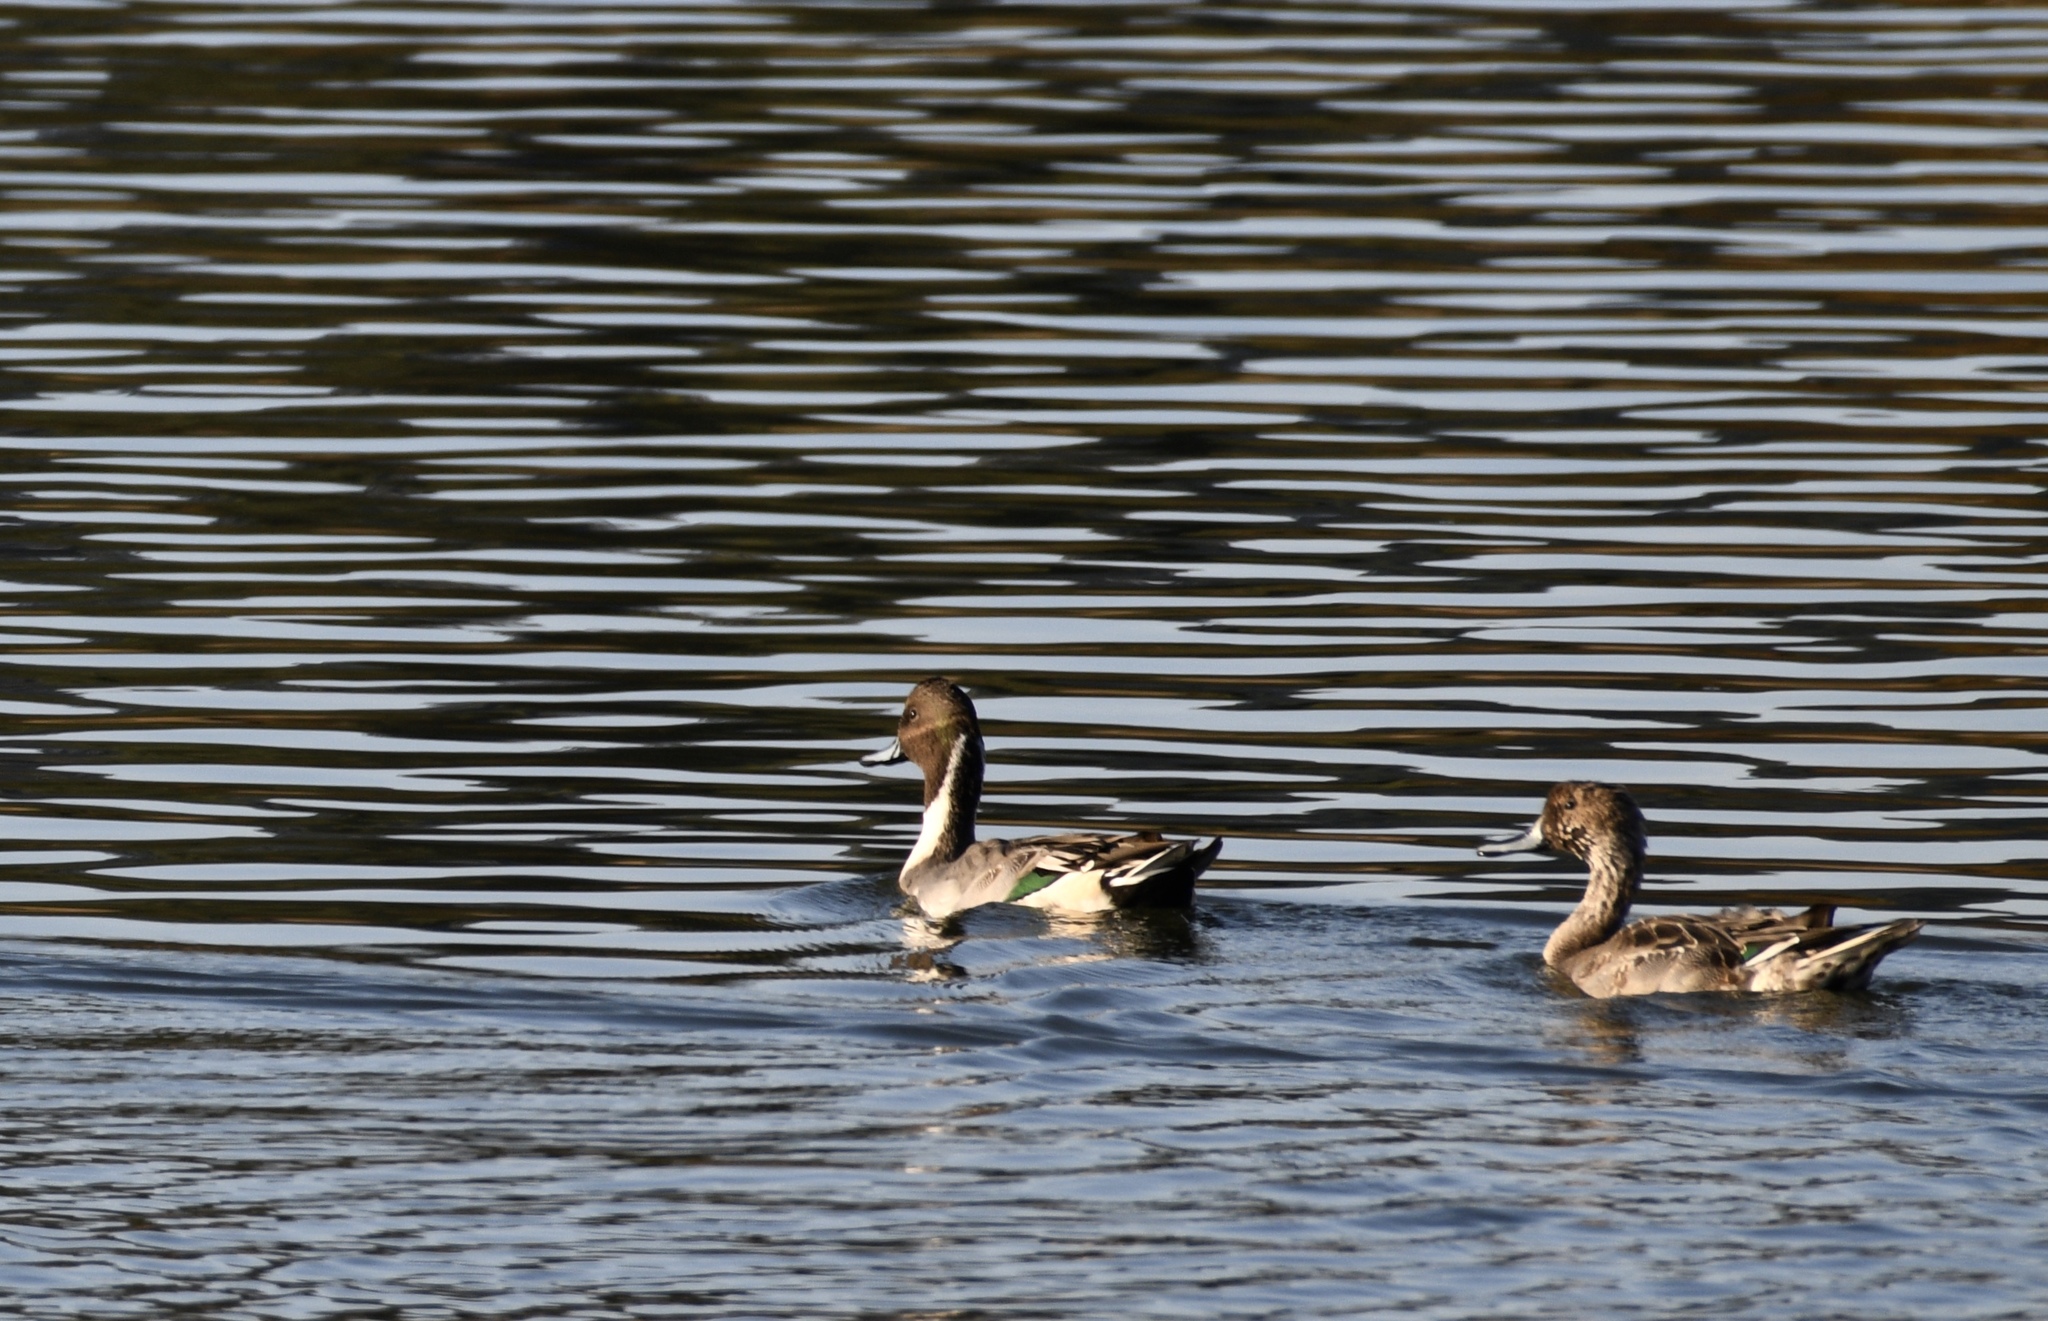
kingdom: Animalia
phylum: Chordata
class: Aves
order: Anseriformes
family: Anatidae
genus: Anas
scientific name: Anas acuta
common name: Northern pintail
